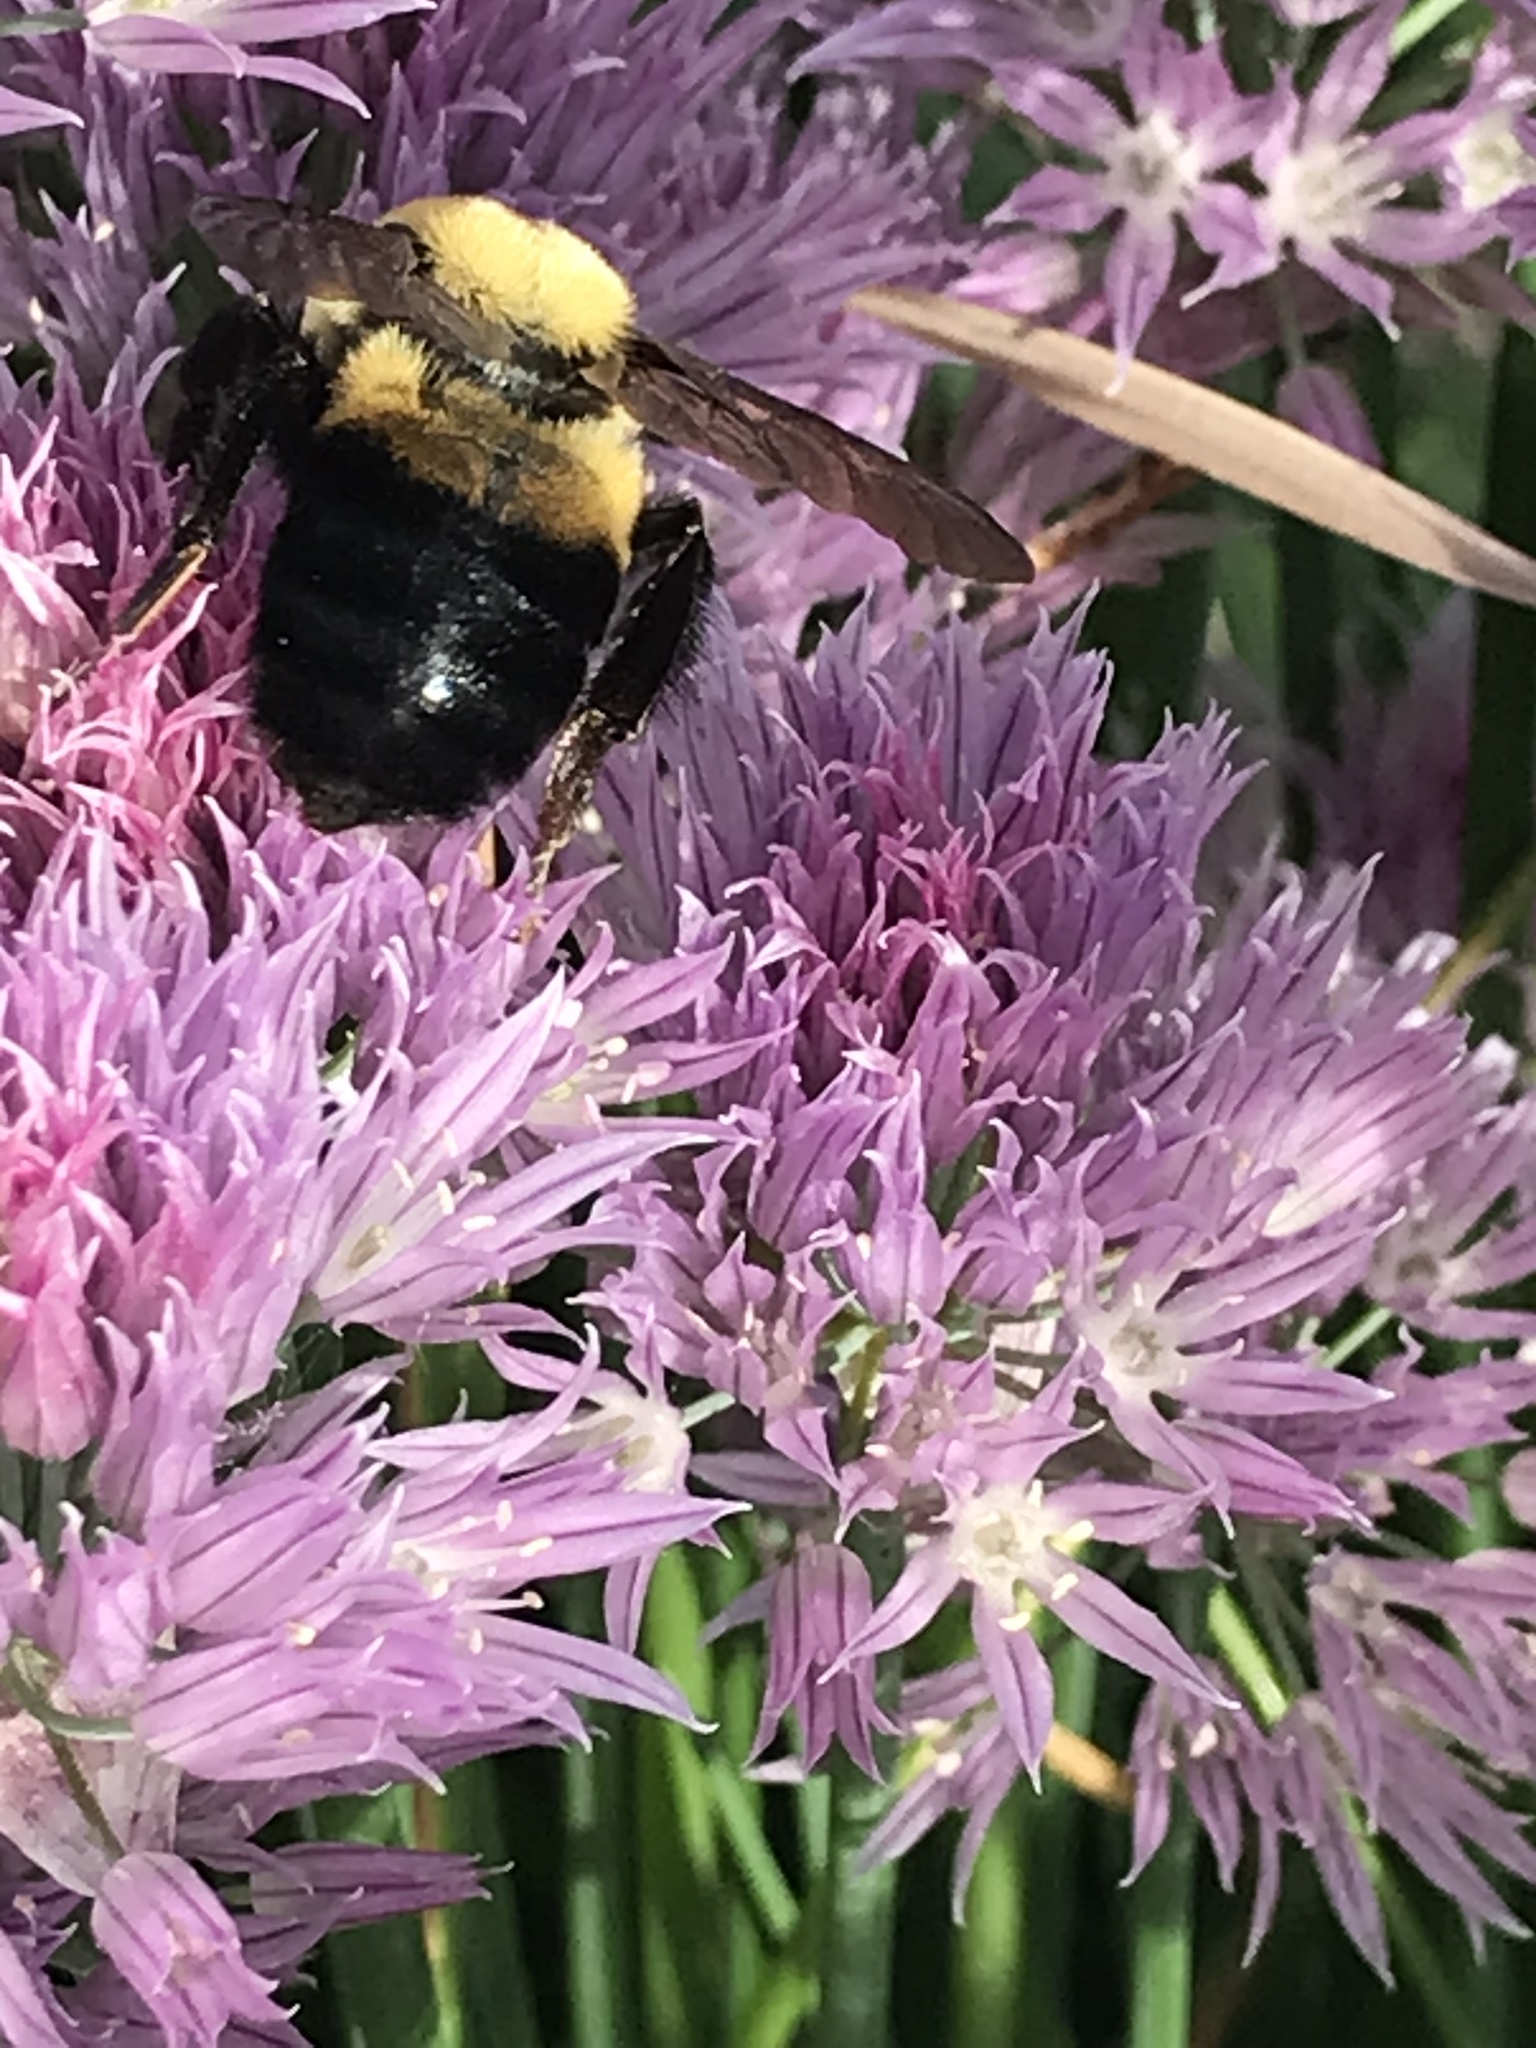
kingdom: Animalia
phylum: Arthropoda
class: Insecta
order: Hymenoptera
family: Apidae
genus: Bombus
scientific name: Bombus griseocollis
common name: Brown-belted bumble bee
